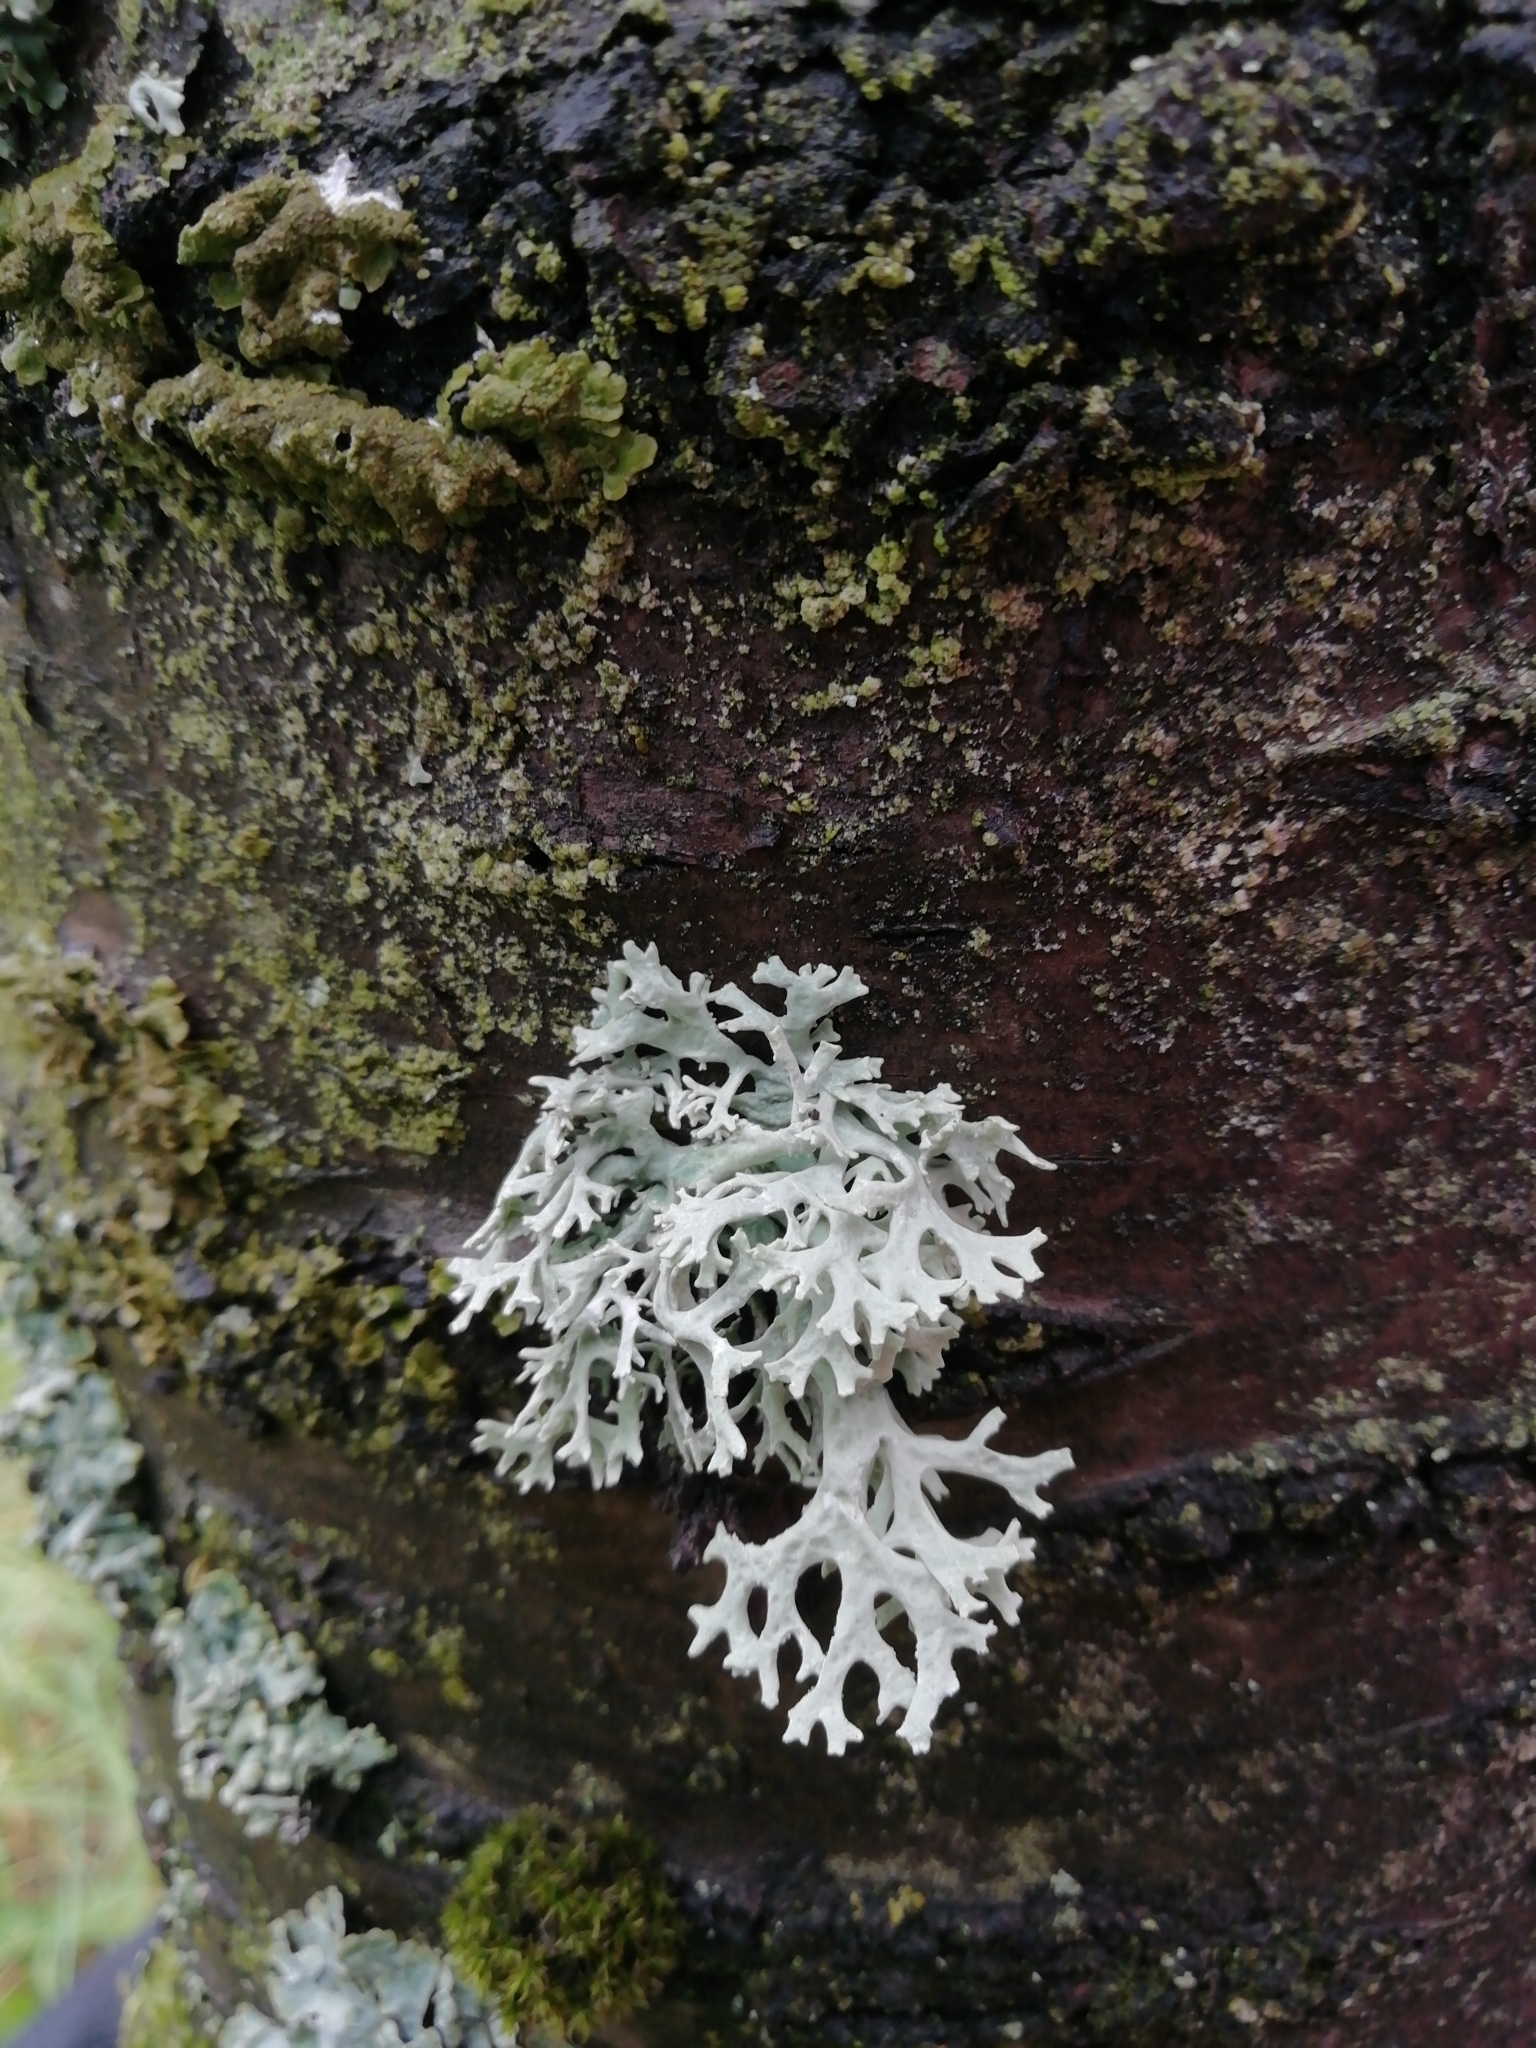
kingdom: Fungi
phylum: Ascomycota
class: Lecanoromycetes
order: Lecanorales
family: Parmeliaceae
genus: Evernia
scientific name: Evernia prunastri
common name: Oak moss
